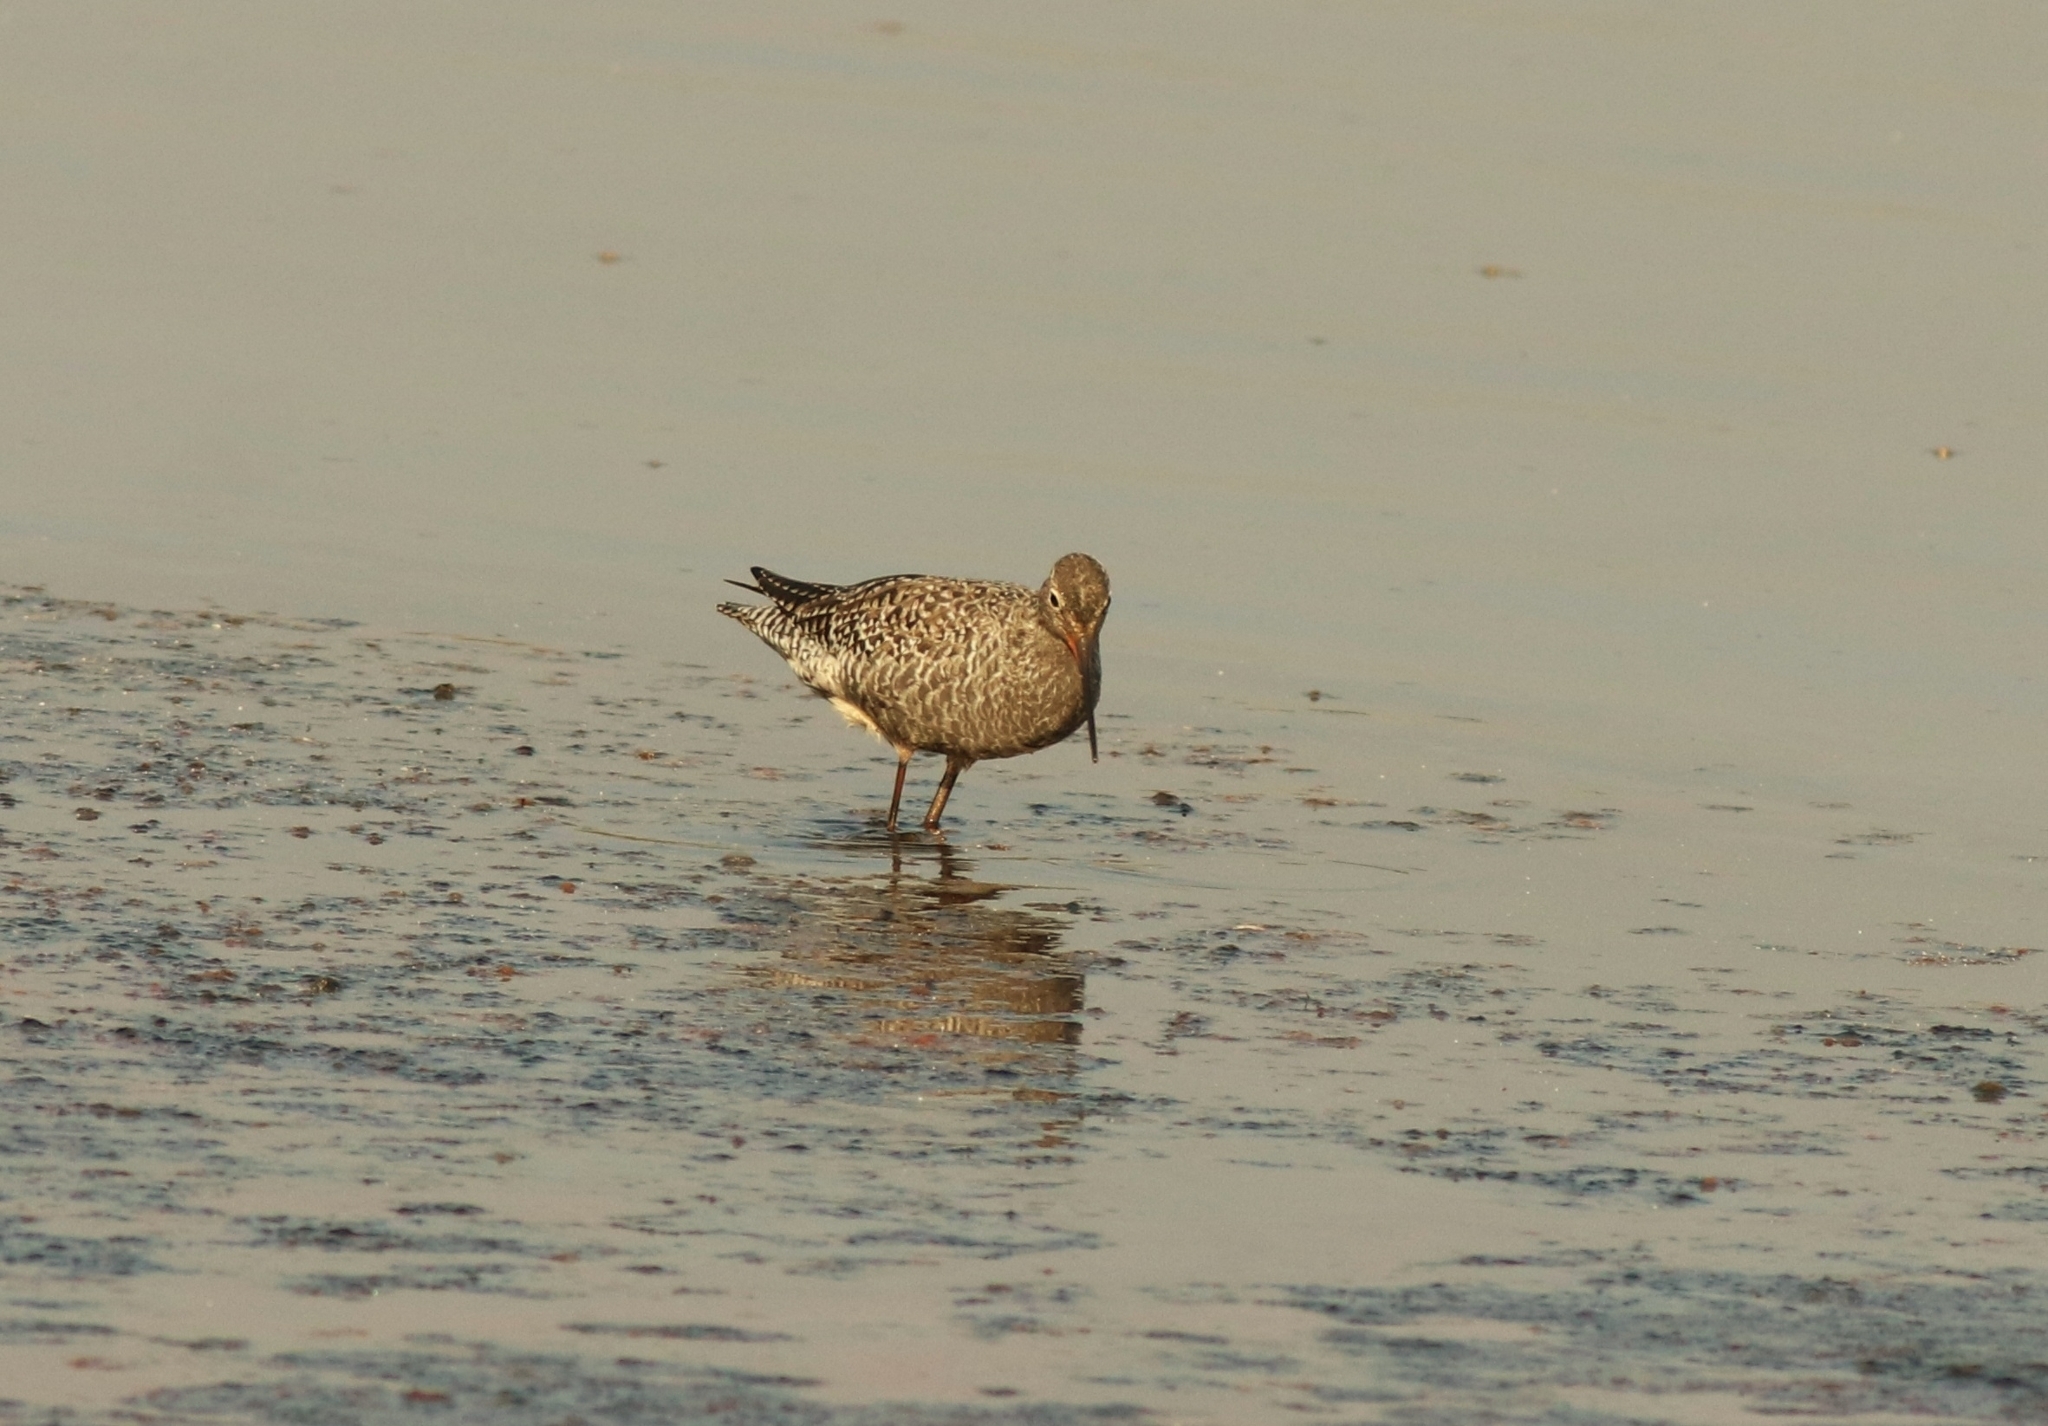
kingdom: Animalia
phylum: Chordata
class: Aves
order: Charadriiformes
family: Scolopacidae
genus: Tringa
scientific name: Tringa erythropus
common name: Spotted redshank
